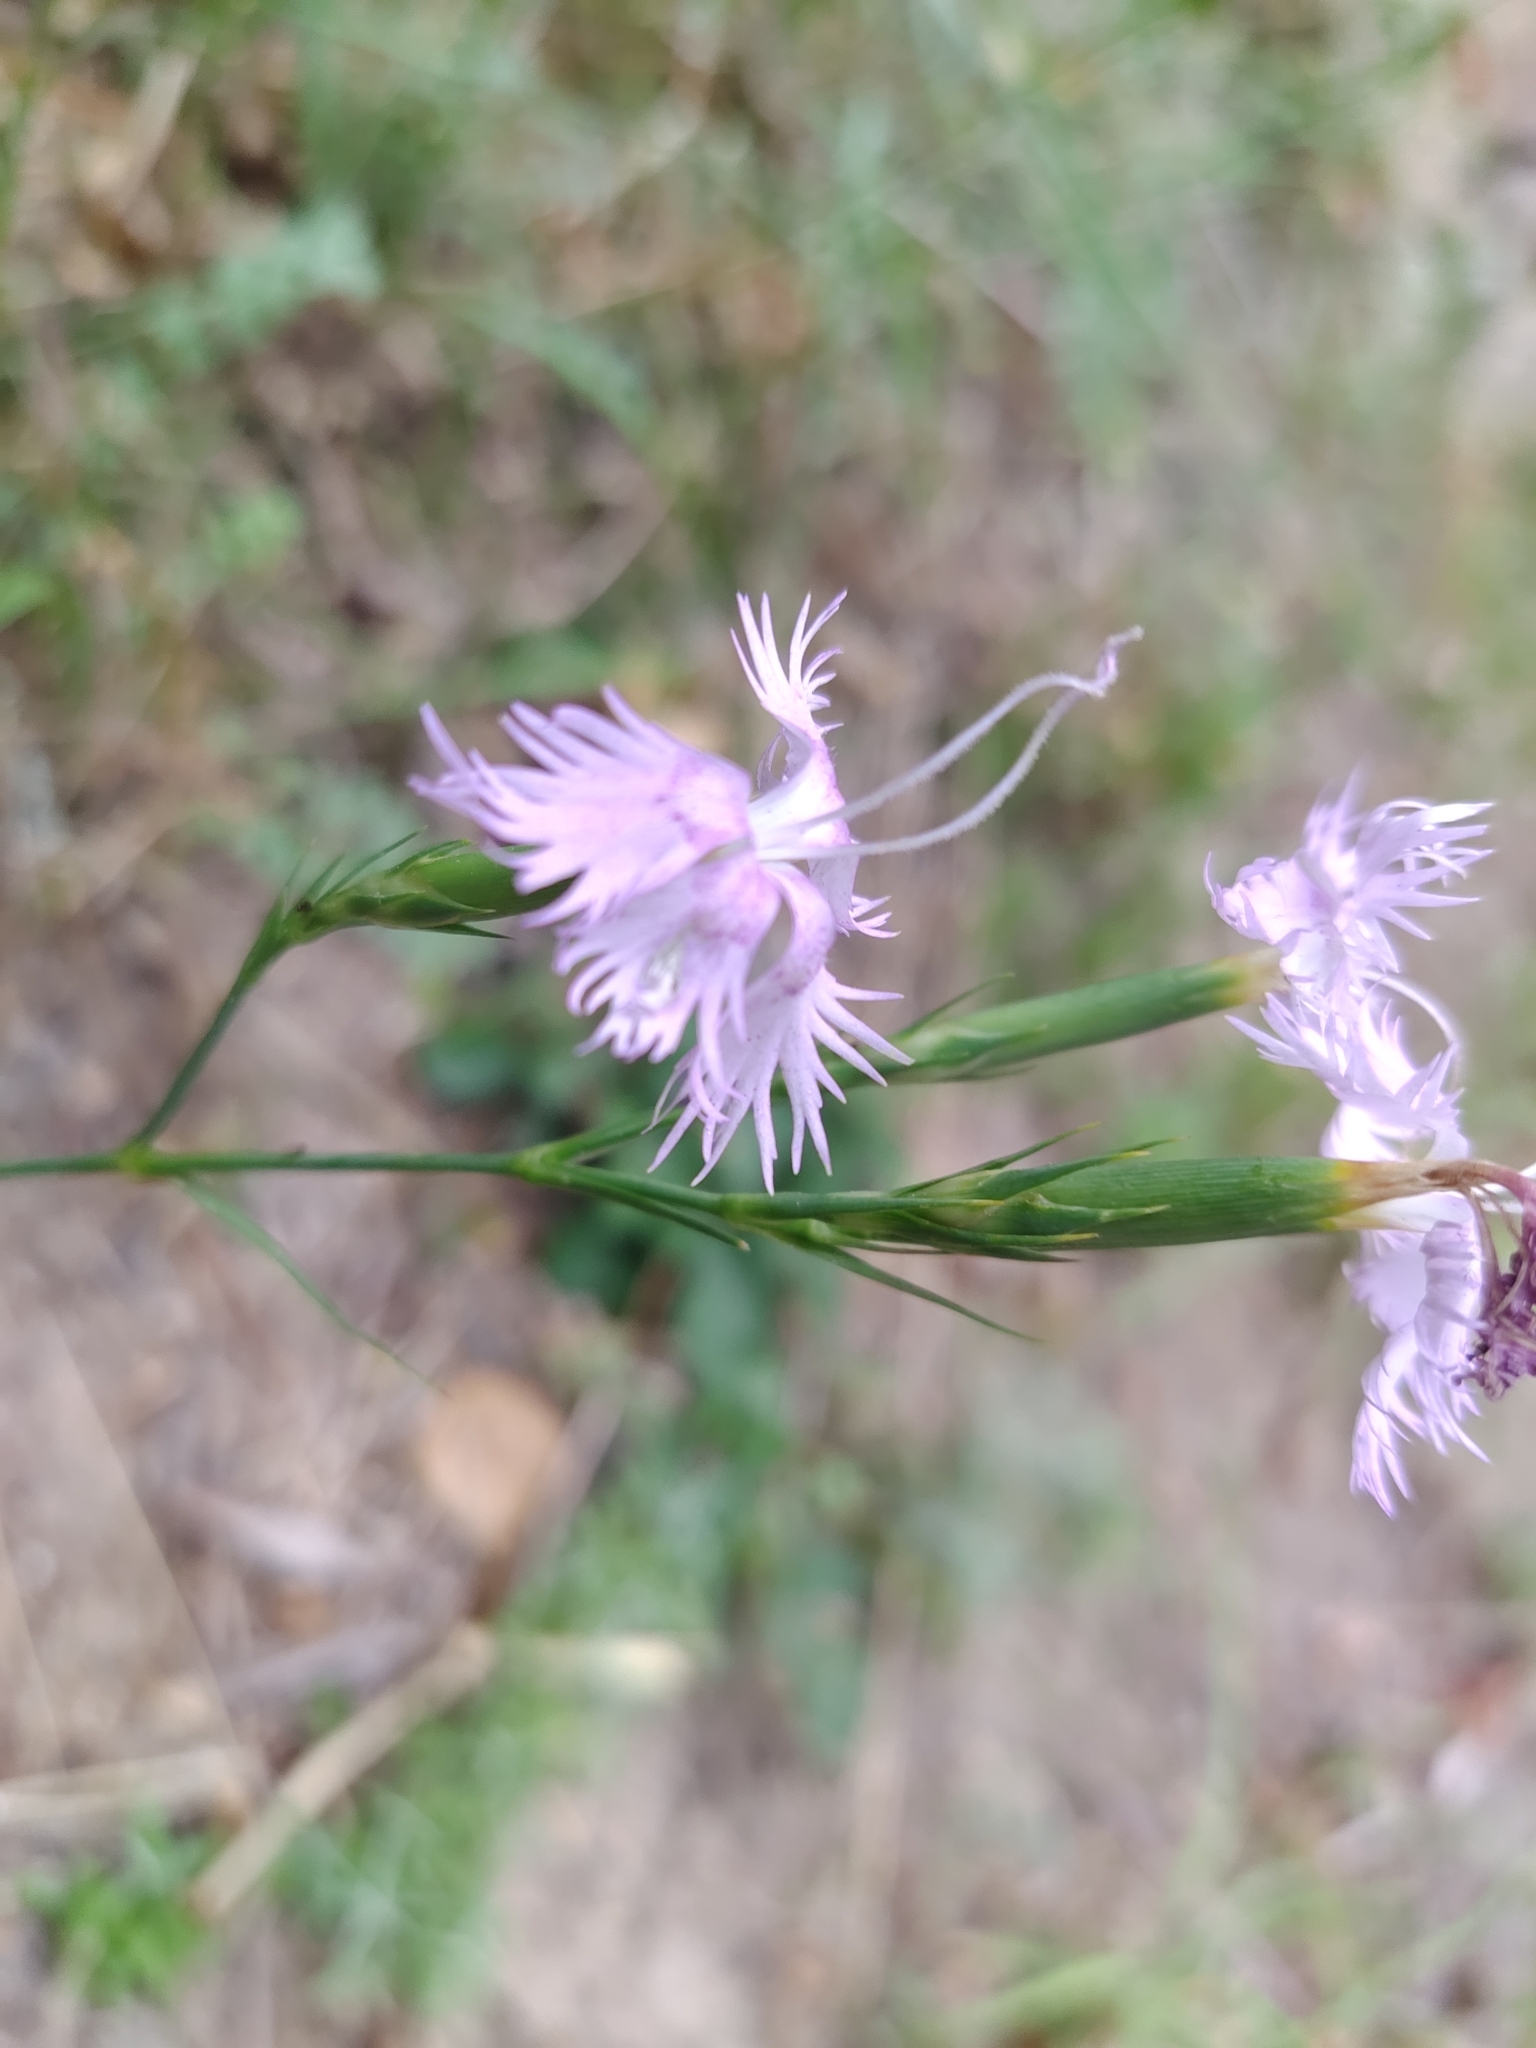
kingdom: Plantae
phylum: Tracheophyta
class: Magnoliopsida
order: Caryophyllales
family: Caryophyllaceae
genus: Dianthus
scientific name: Dianthus hyssopifolius
